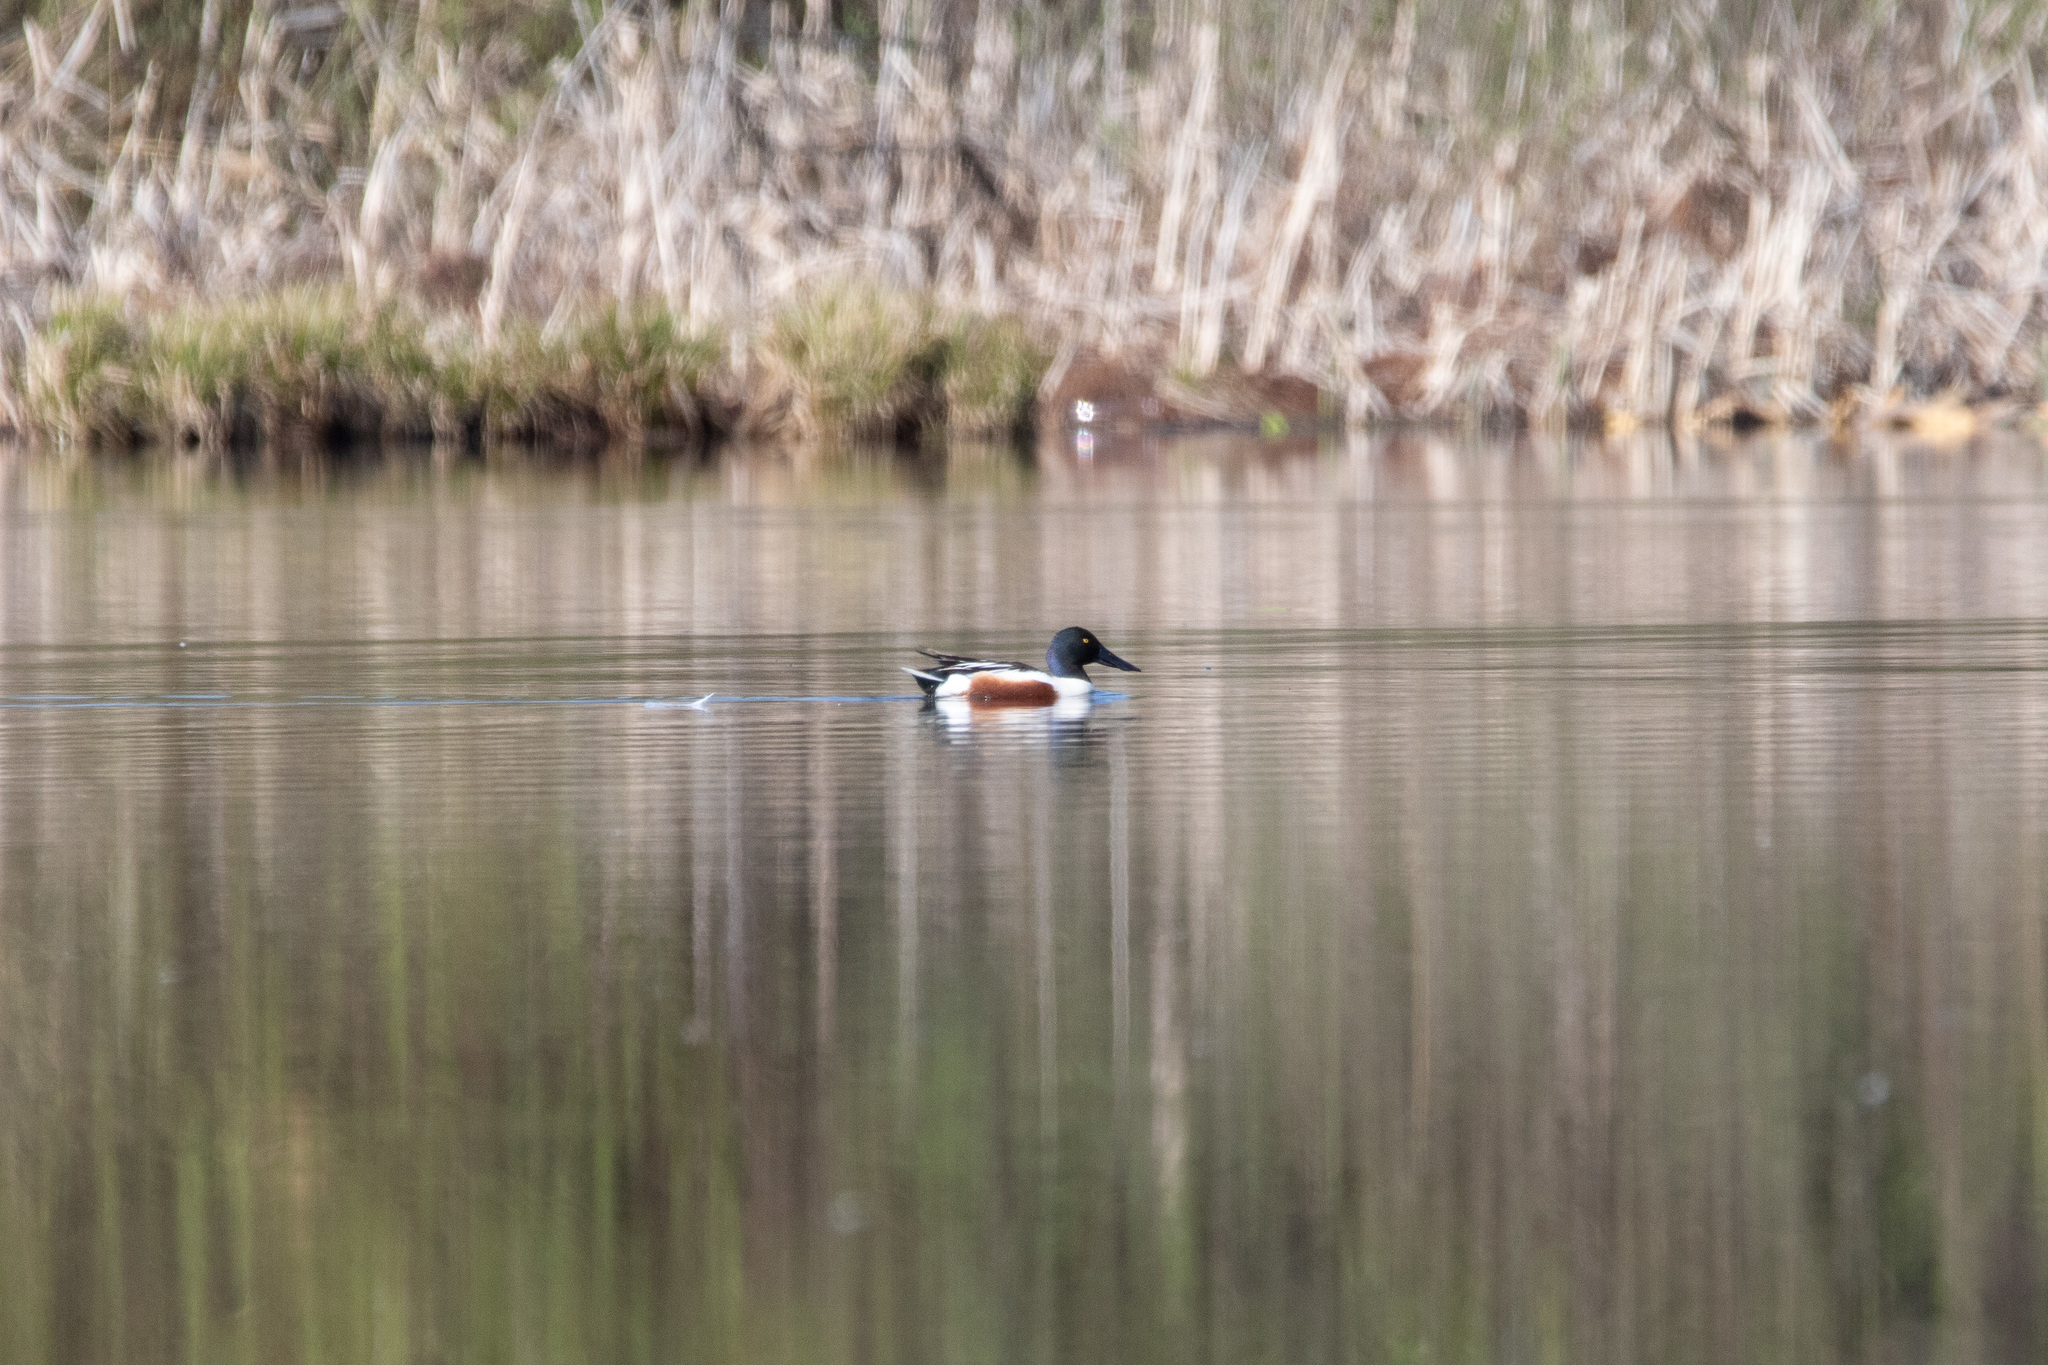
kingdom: Animalia
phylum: Chordata
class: Aves
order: Anseriformes
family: Anatidae
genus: Spatula
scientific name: Spatula clypeata
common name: Northern shoveler
